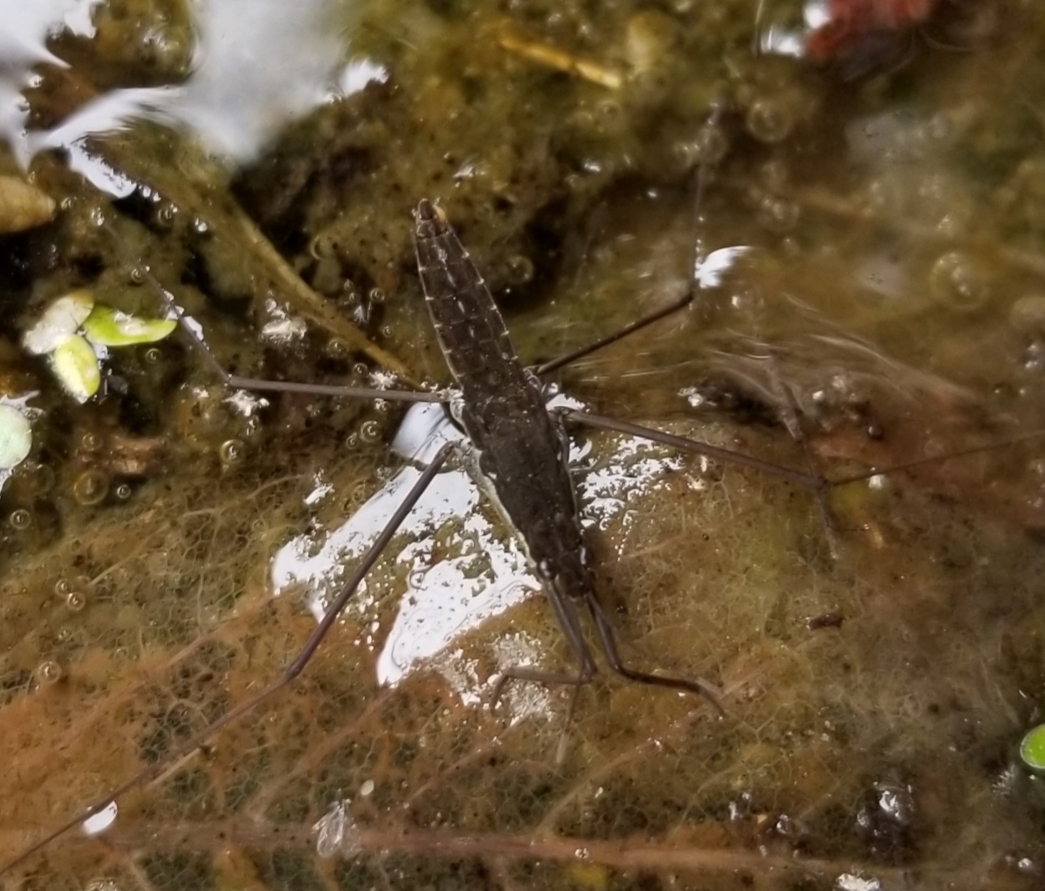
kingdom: Animalia
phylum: Arthropoda
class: Insecta
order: Hemiptera
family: Gerridae
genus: Aquarius
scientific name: Aquarius remigis
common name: Common water strider
